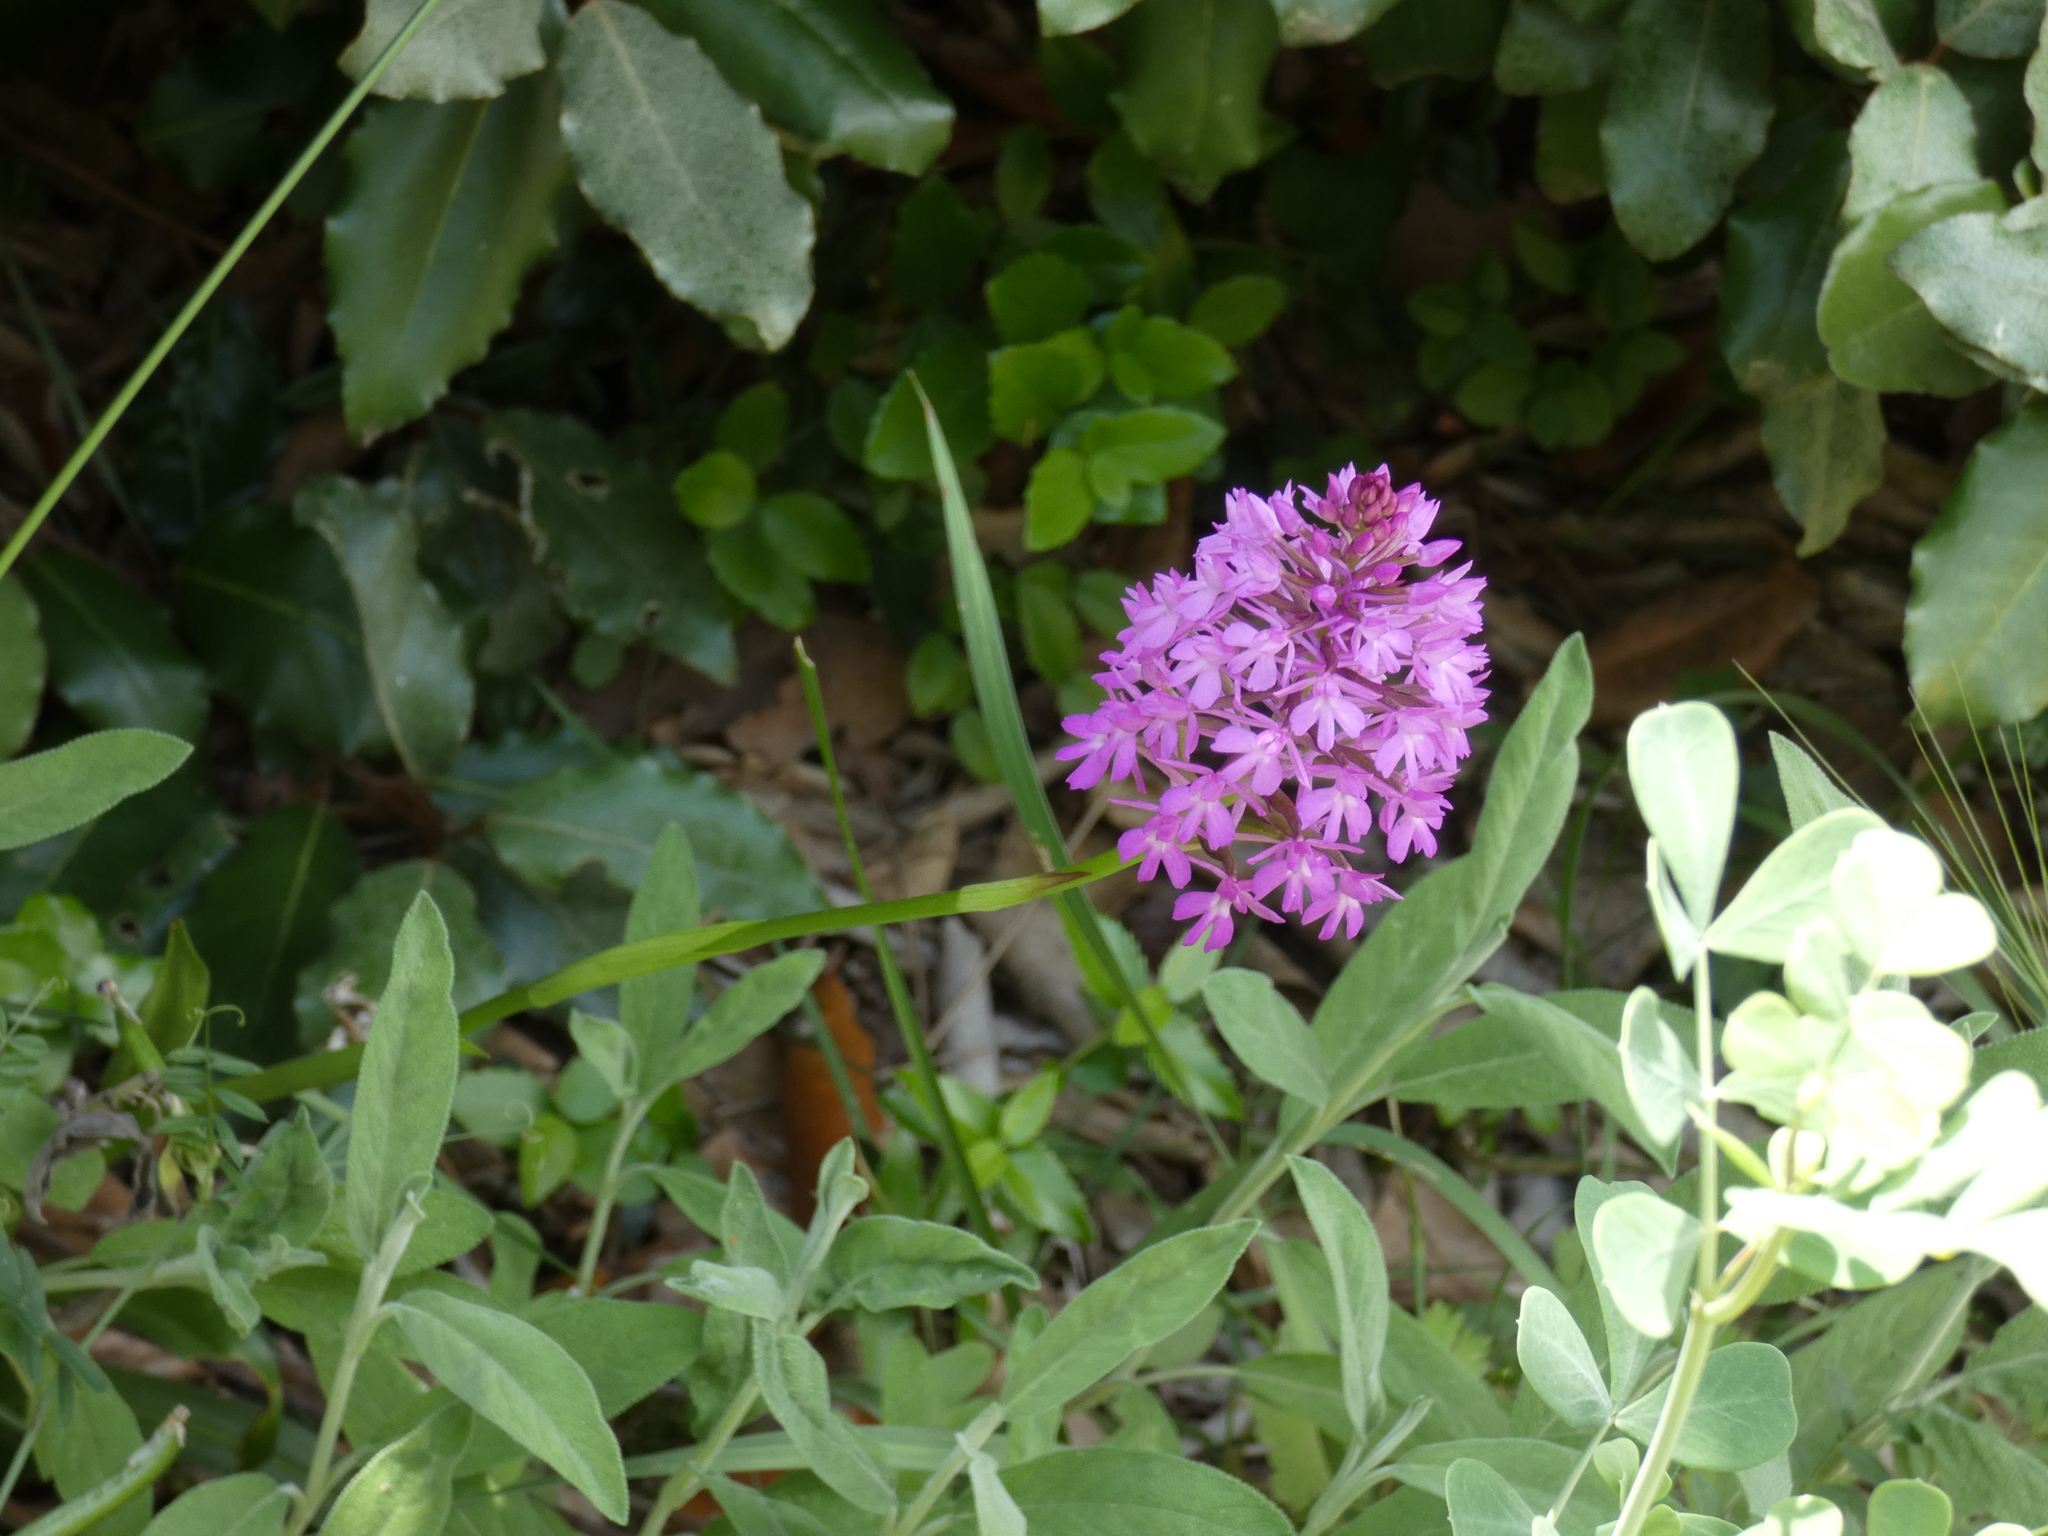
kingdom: Plantae
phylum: Tracheophyta
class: Liliopsida
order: Asparagales
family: Orchidaceae
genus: Anacamptis
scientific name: Anacamptis pyramidalis
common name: Pyramidal orchid
